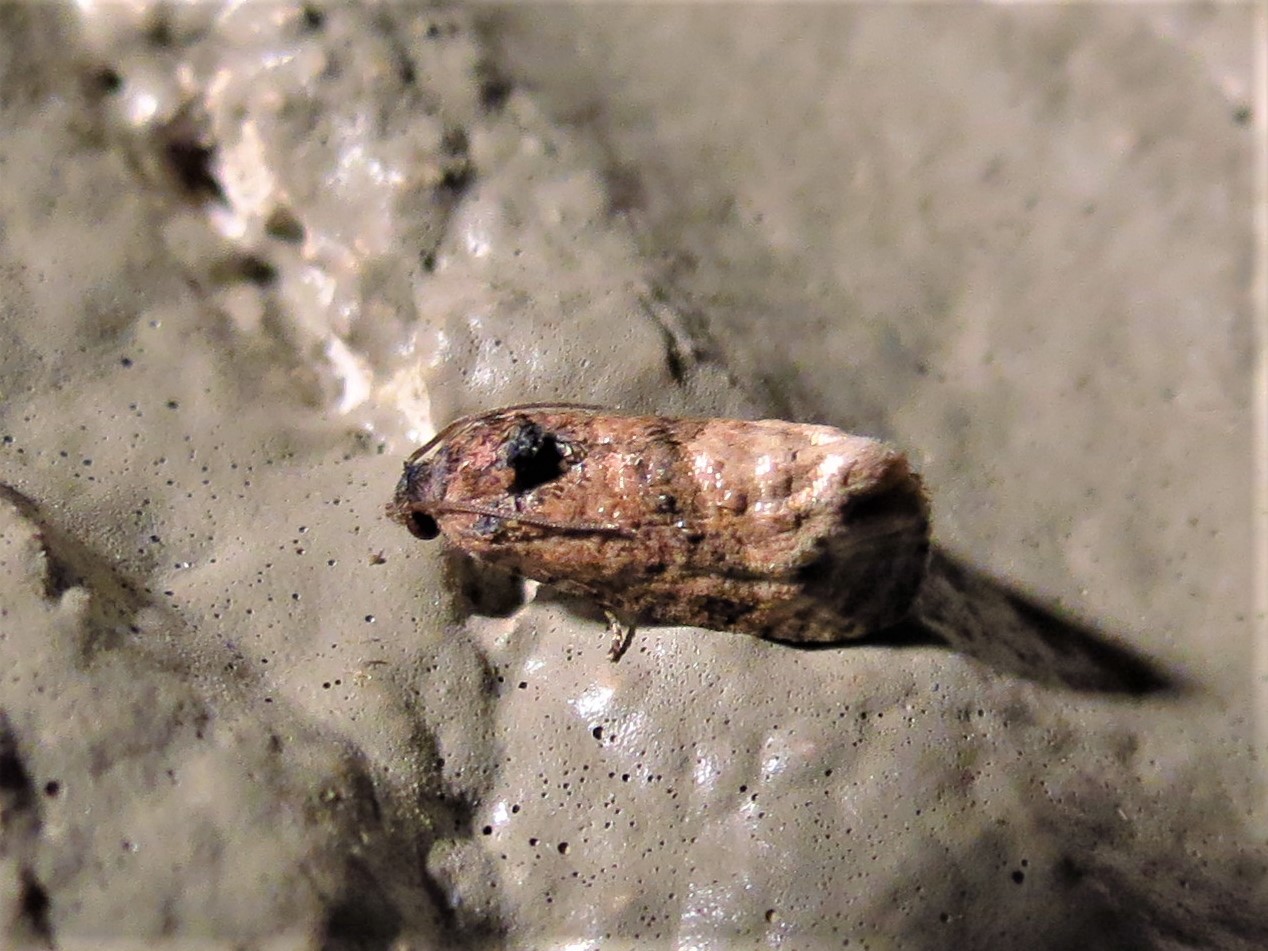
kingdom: Animalia
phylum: Arthropoda
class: Insecta
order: Lepidoptera
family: Tortricidae
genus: Ecdytolopha
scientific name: Ecdytolopha mana
